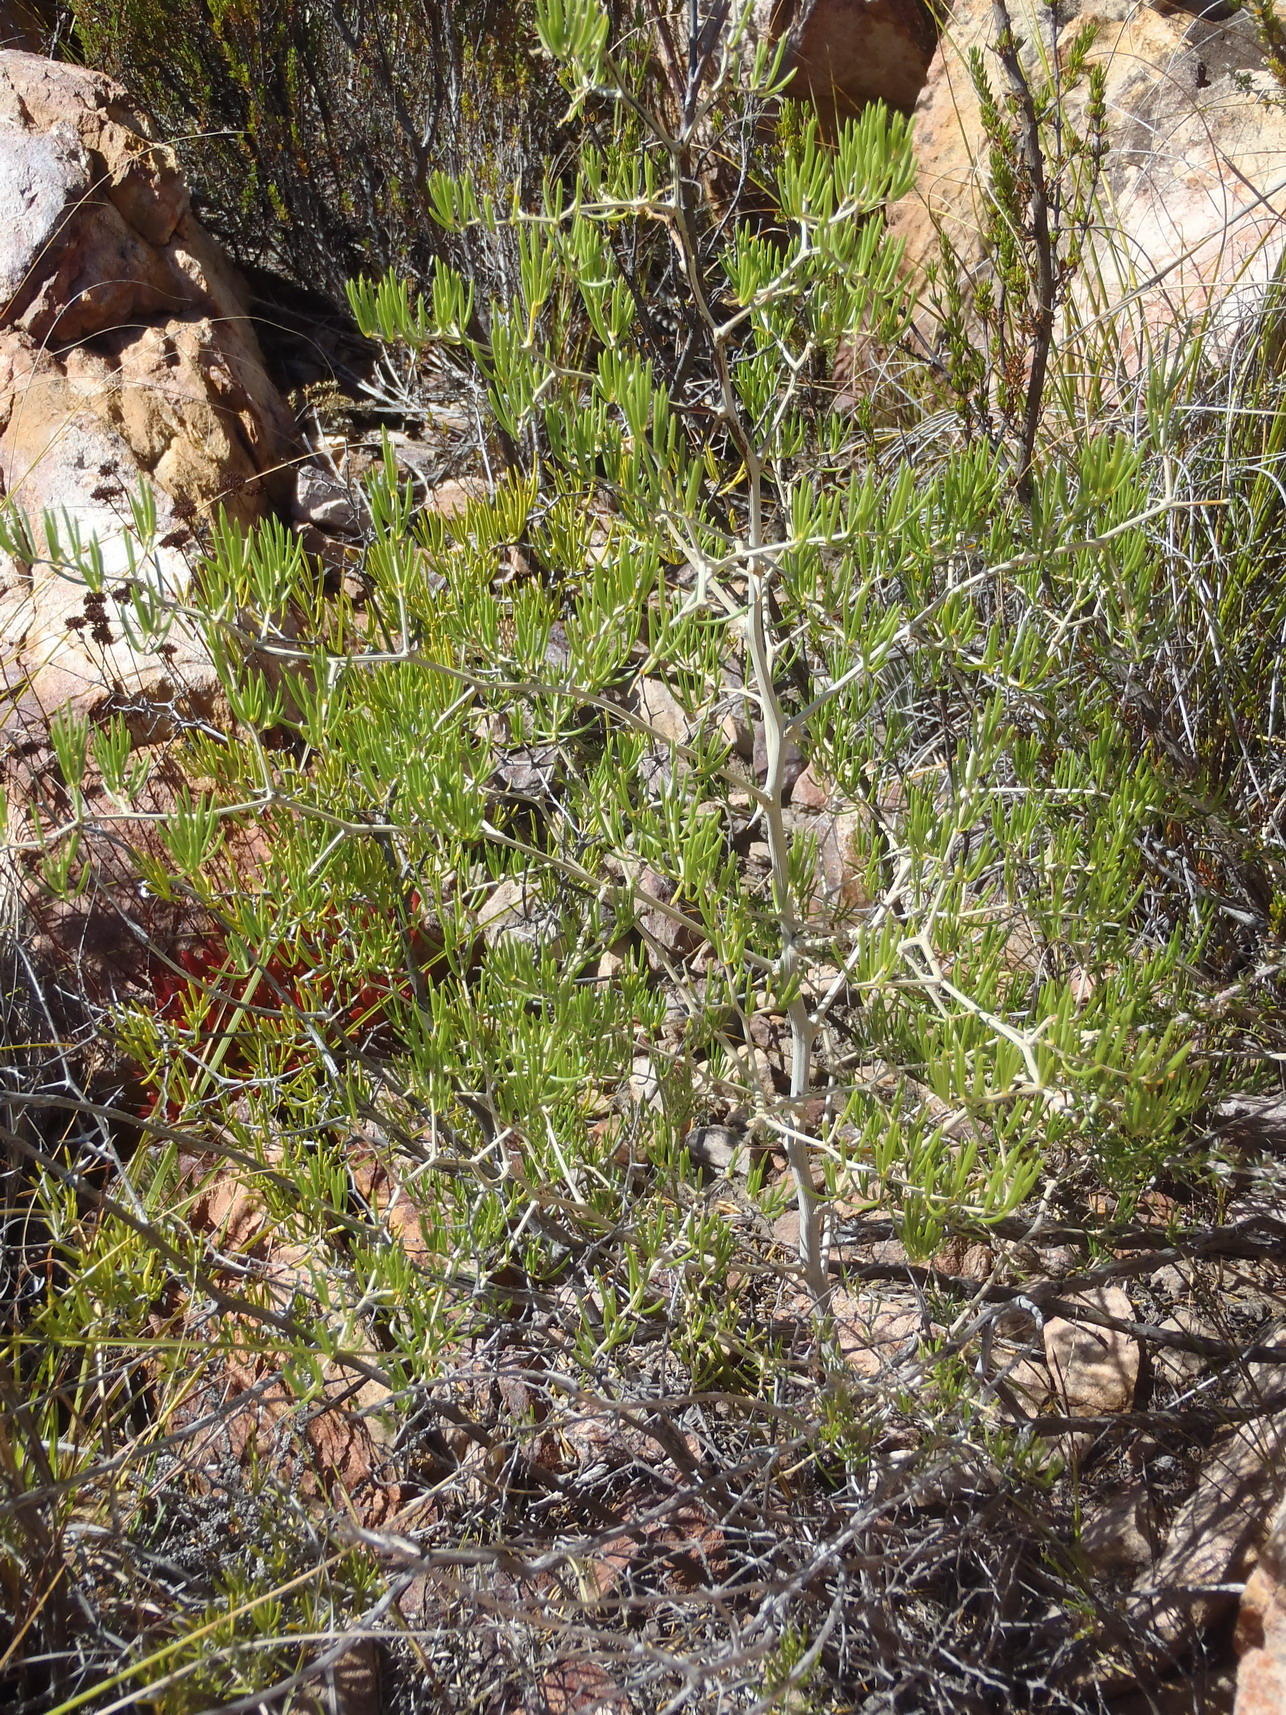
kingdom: Plantae
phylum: Tracheophyta
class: Liliopsida
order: Asparagales
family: Asparagaceae
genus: Asparagus
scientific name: Asparagus lignosus
